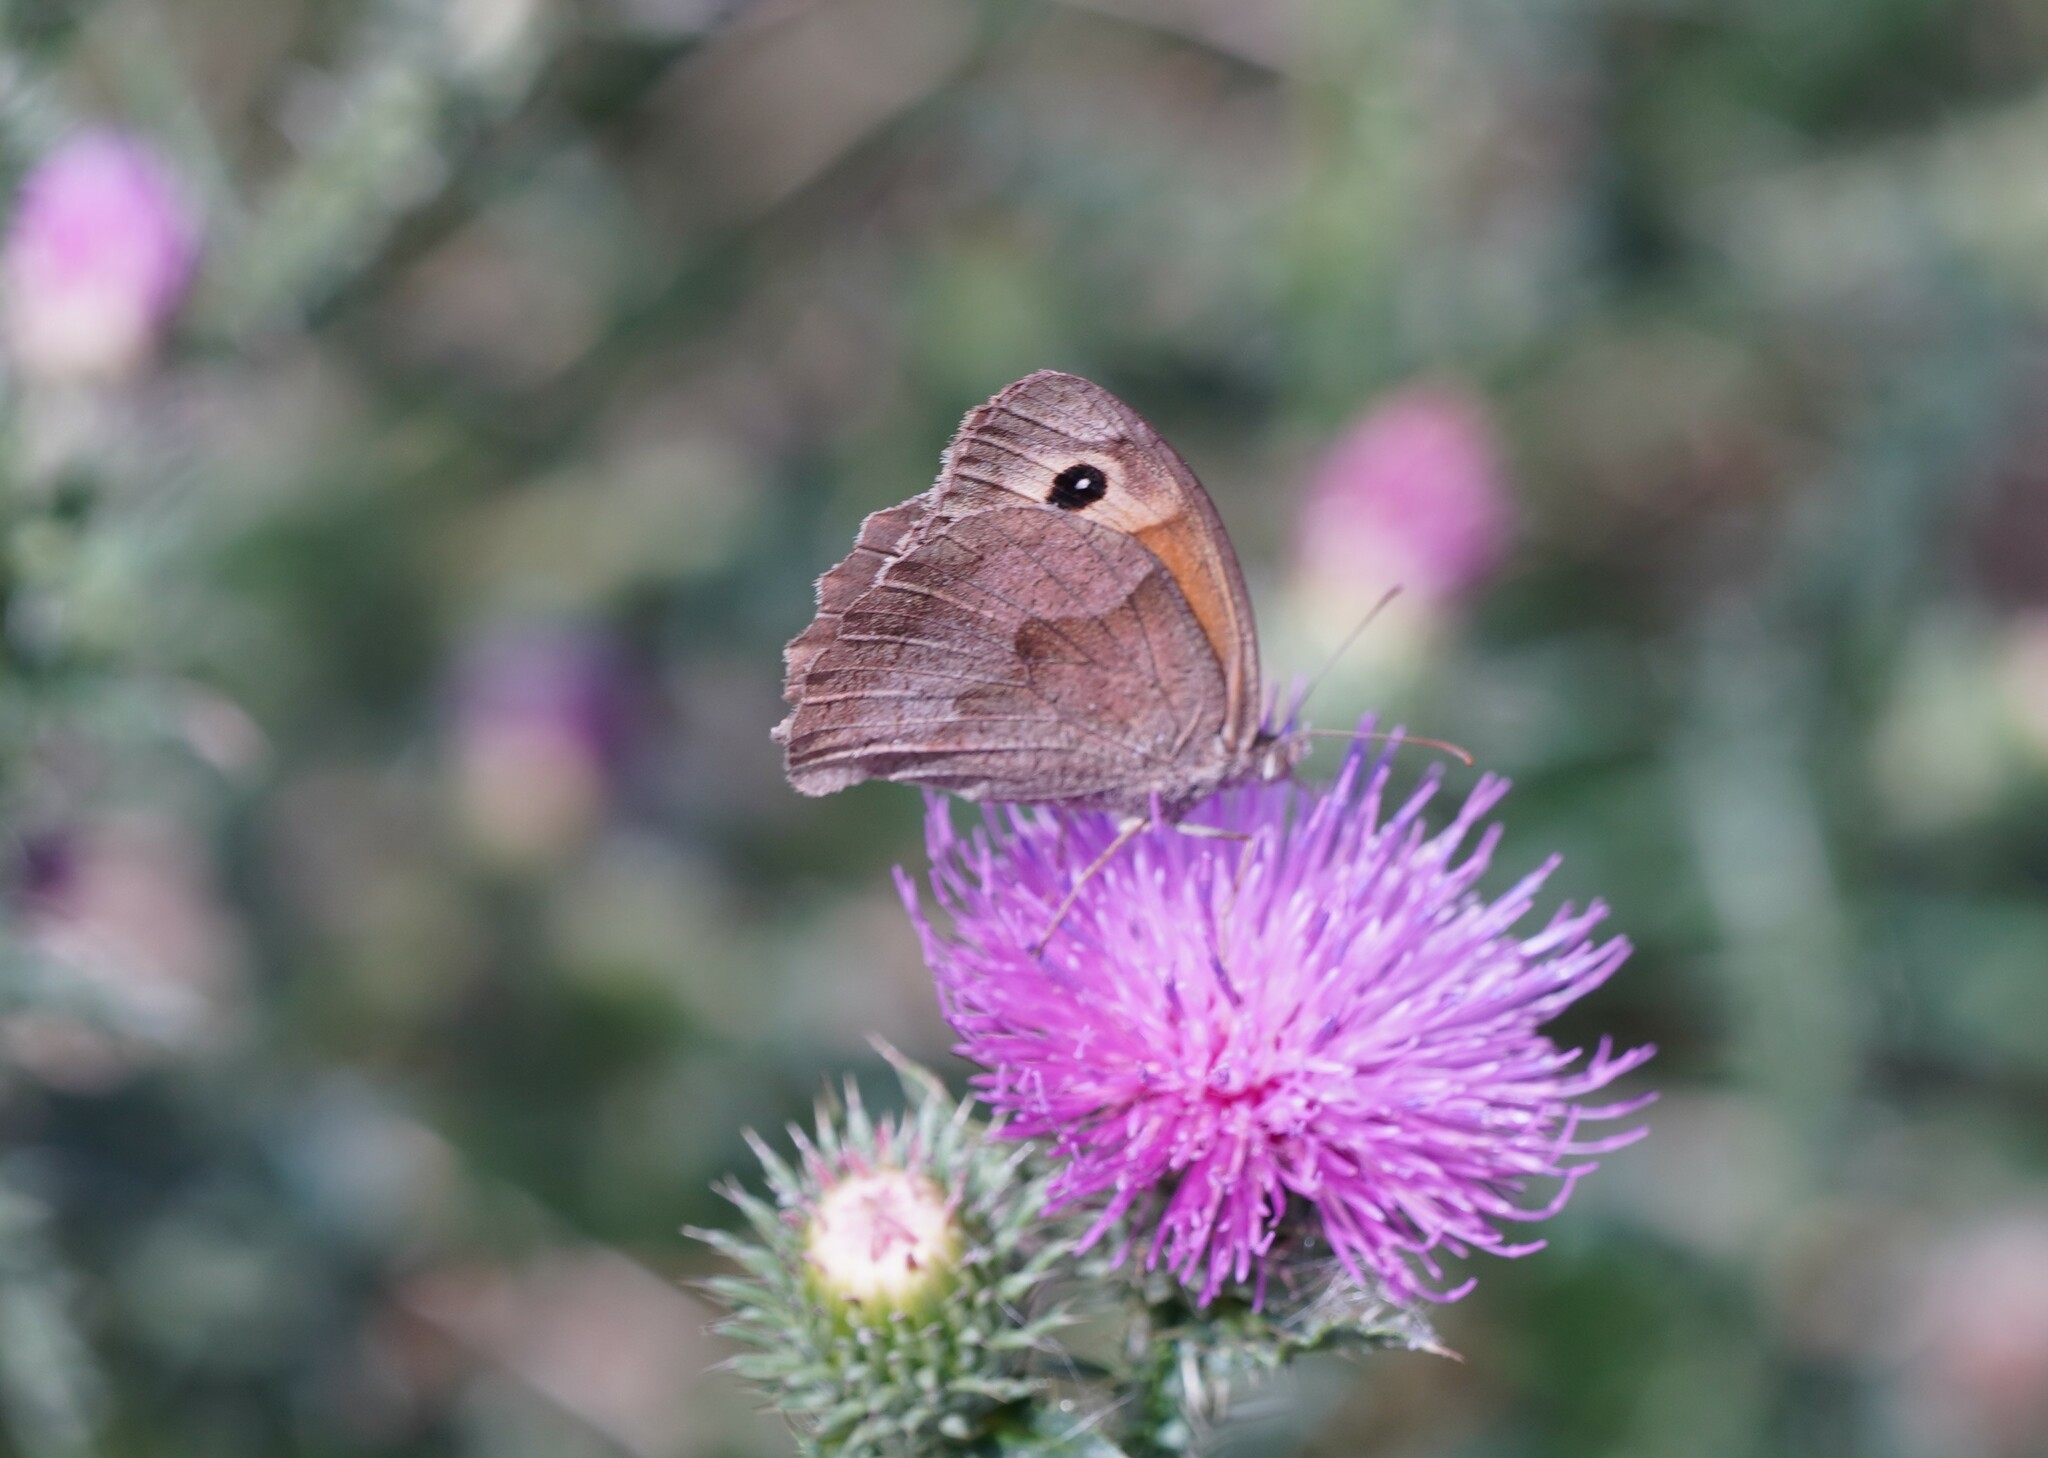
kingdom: Animalia
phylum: Arthropoda
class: Insecta
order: Lepidoptera
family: Nymphalidae
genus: Maniola
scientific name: Maniola jurtina
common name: Meadow brown
